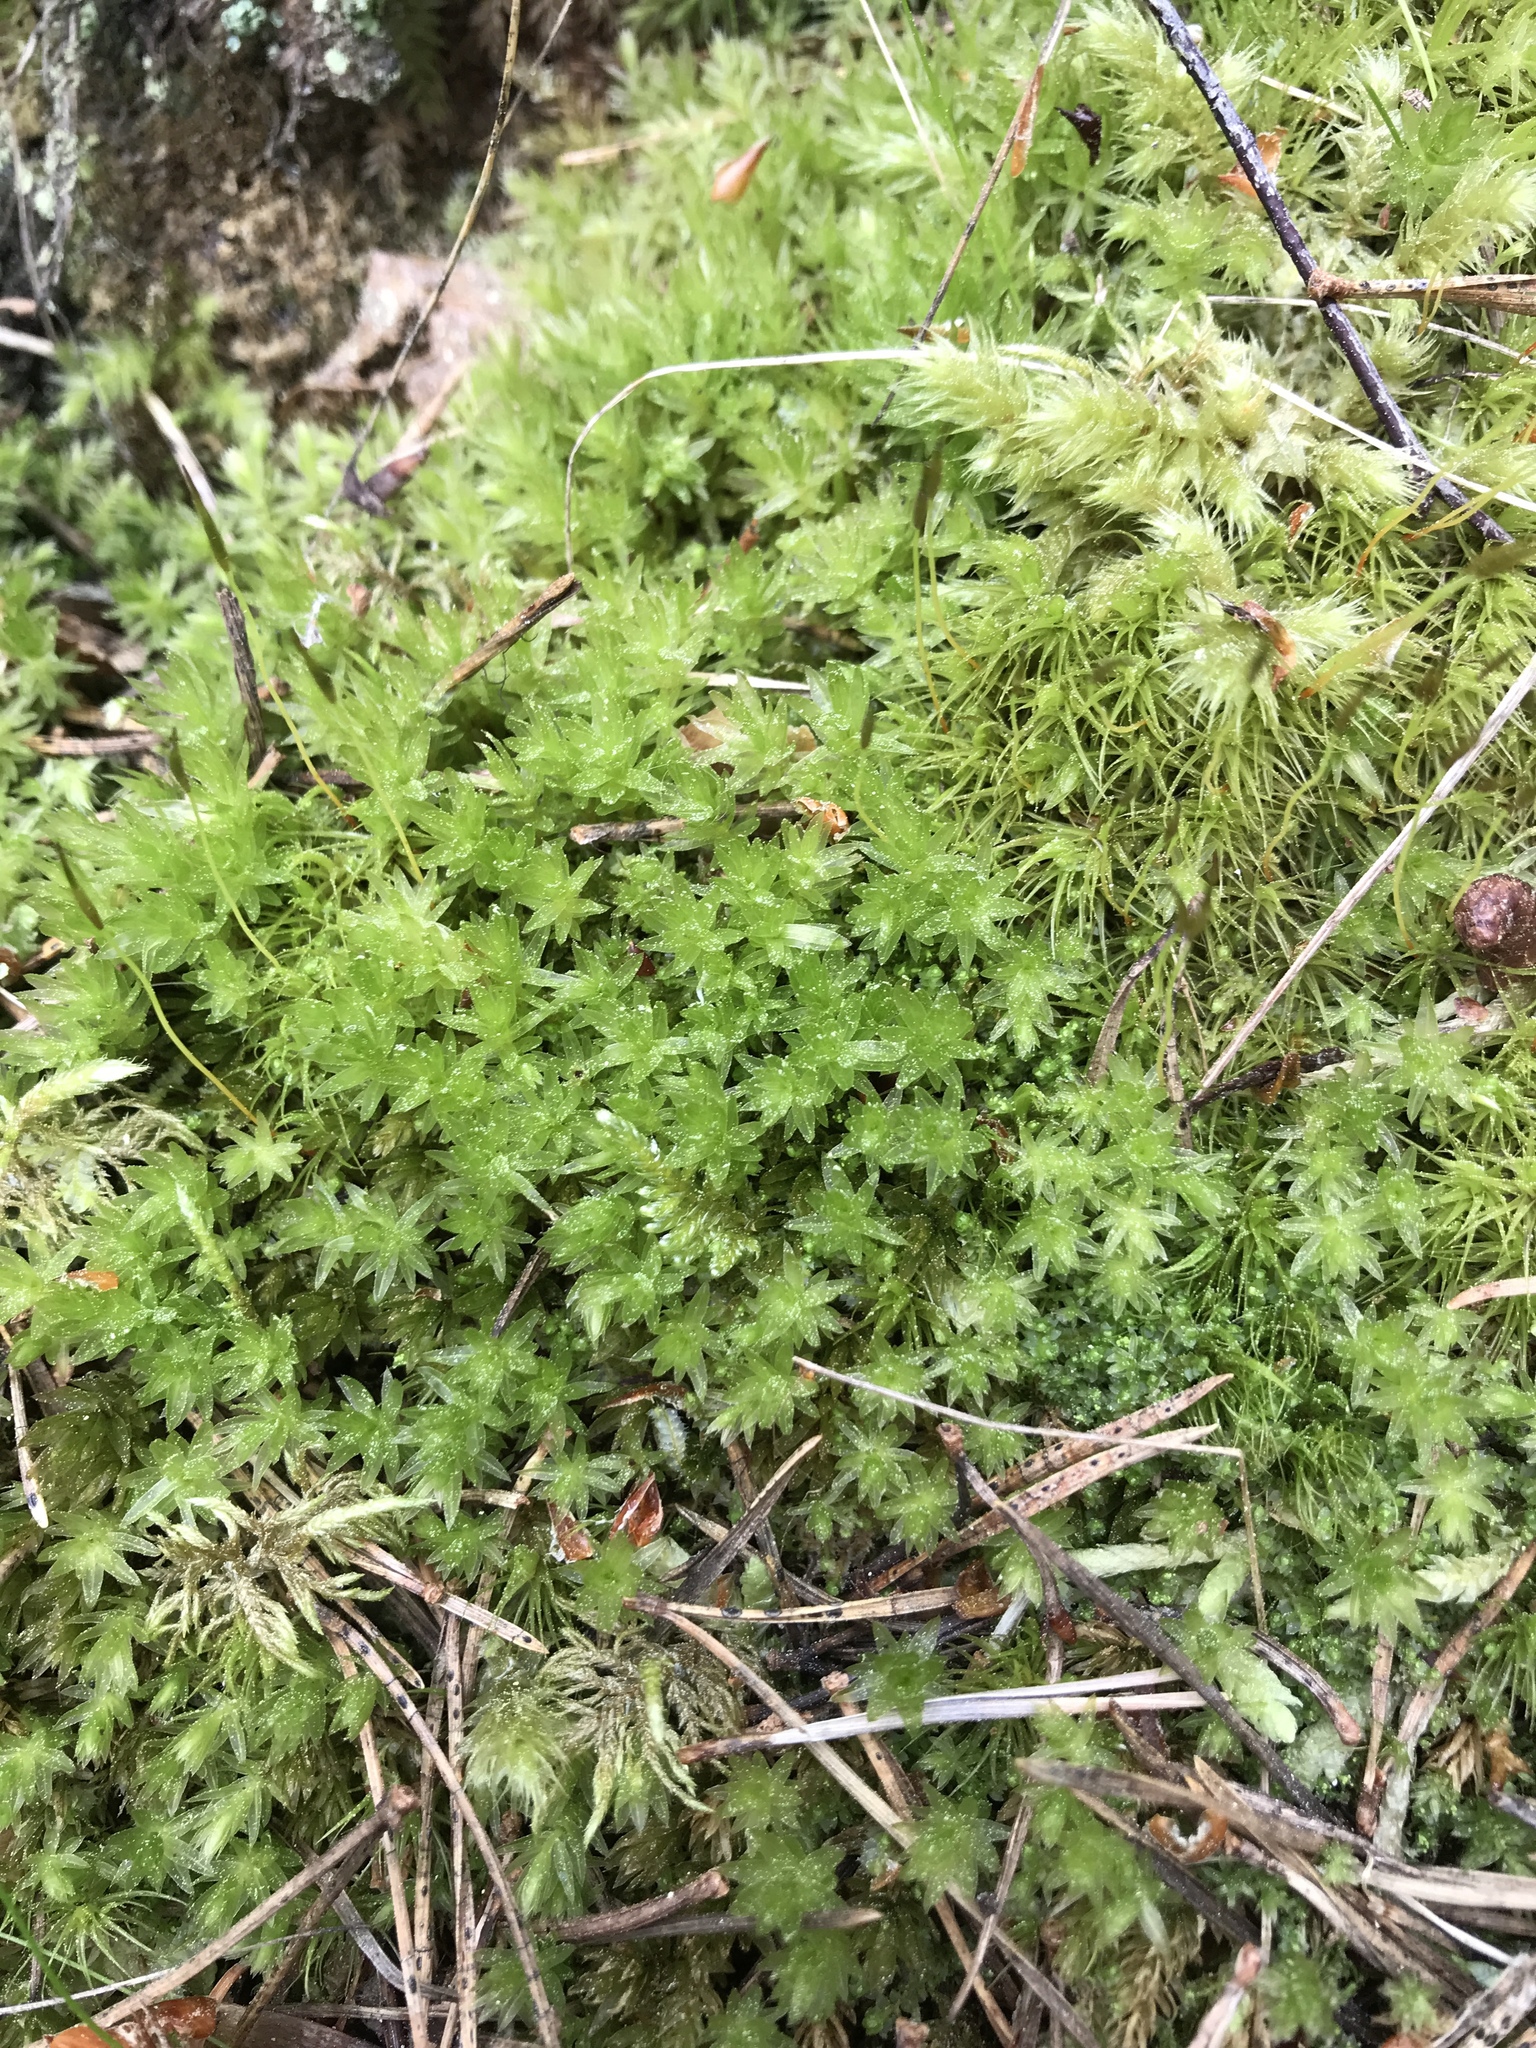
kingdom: Plantae
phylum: Bryophyta
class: Bryopsida
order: Bryales
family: Mniaceae
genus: Mnium
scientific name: Mnium hornum
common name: Swan's-neck leafy moss
